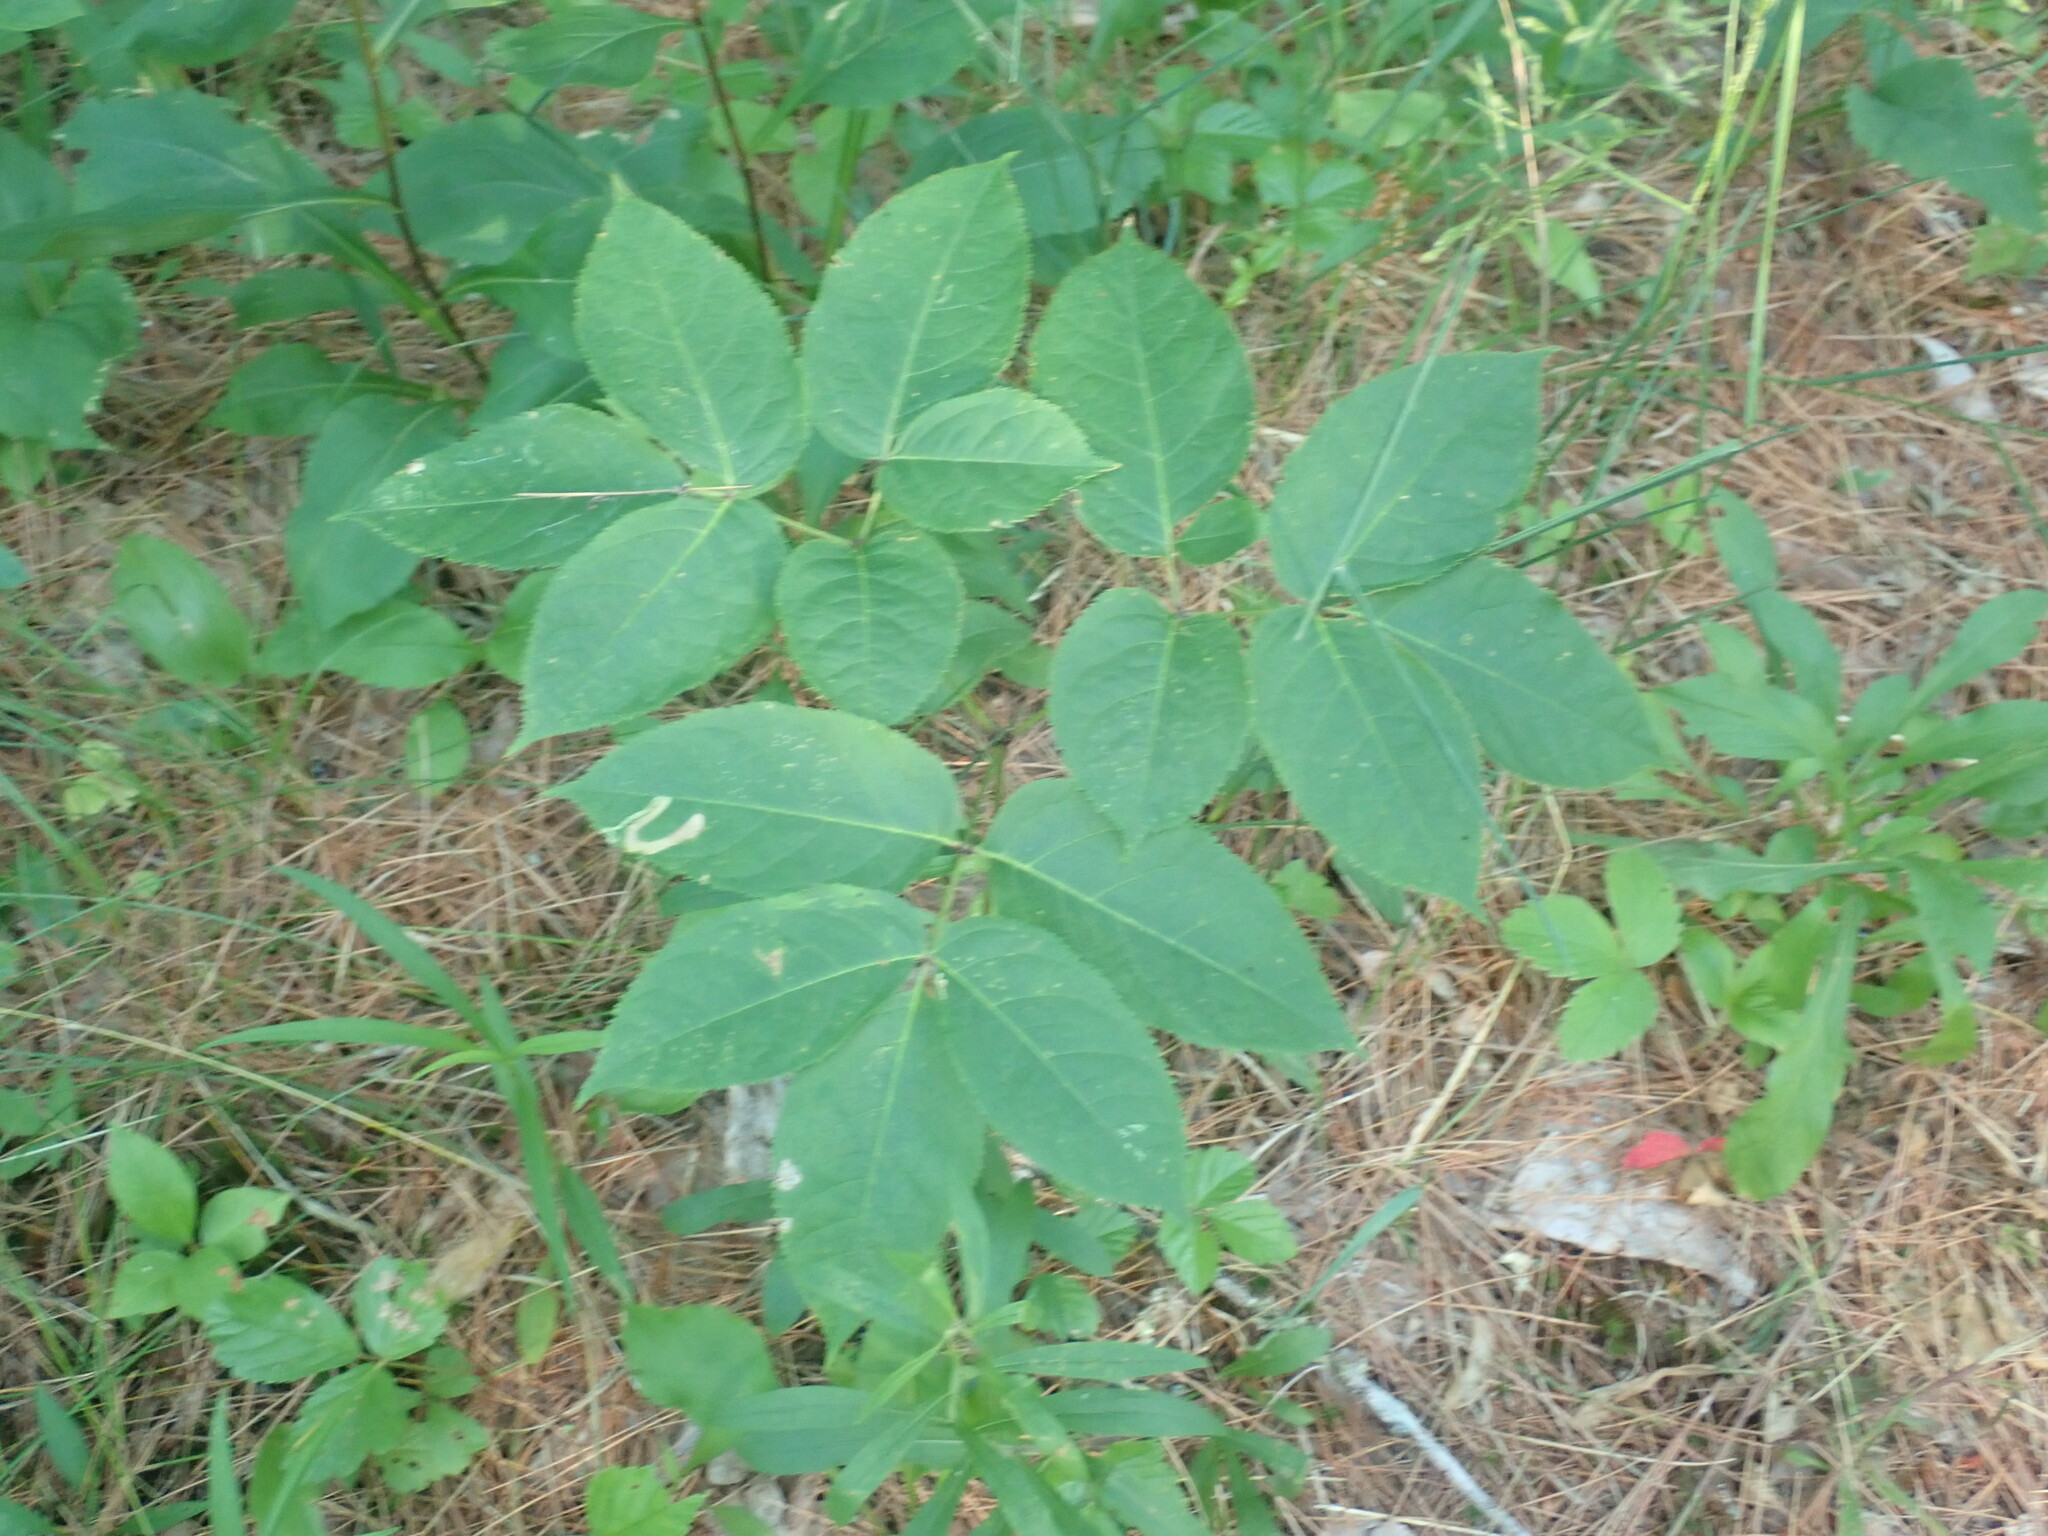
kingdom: Plantae
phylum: Tracheophyta
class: Magnoliopsida
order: Apiales
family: Araliaceae
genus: Aralia
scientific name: Aralia nudicaulis
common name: Wild sarsaparilla
